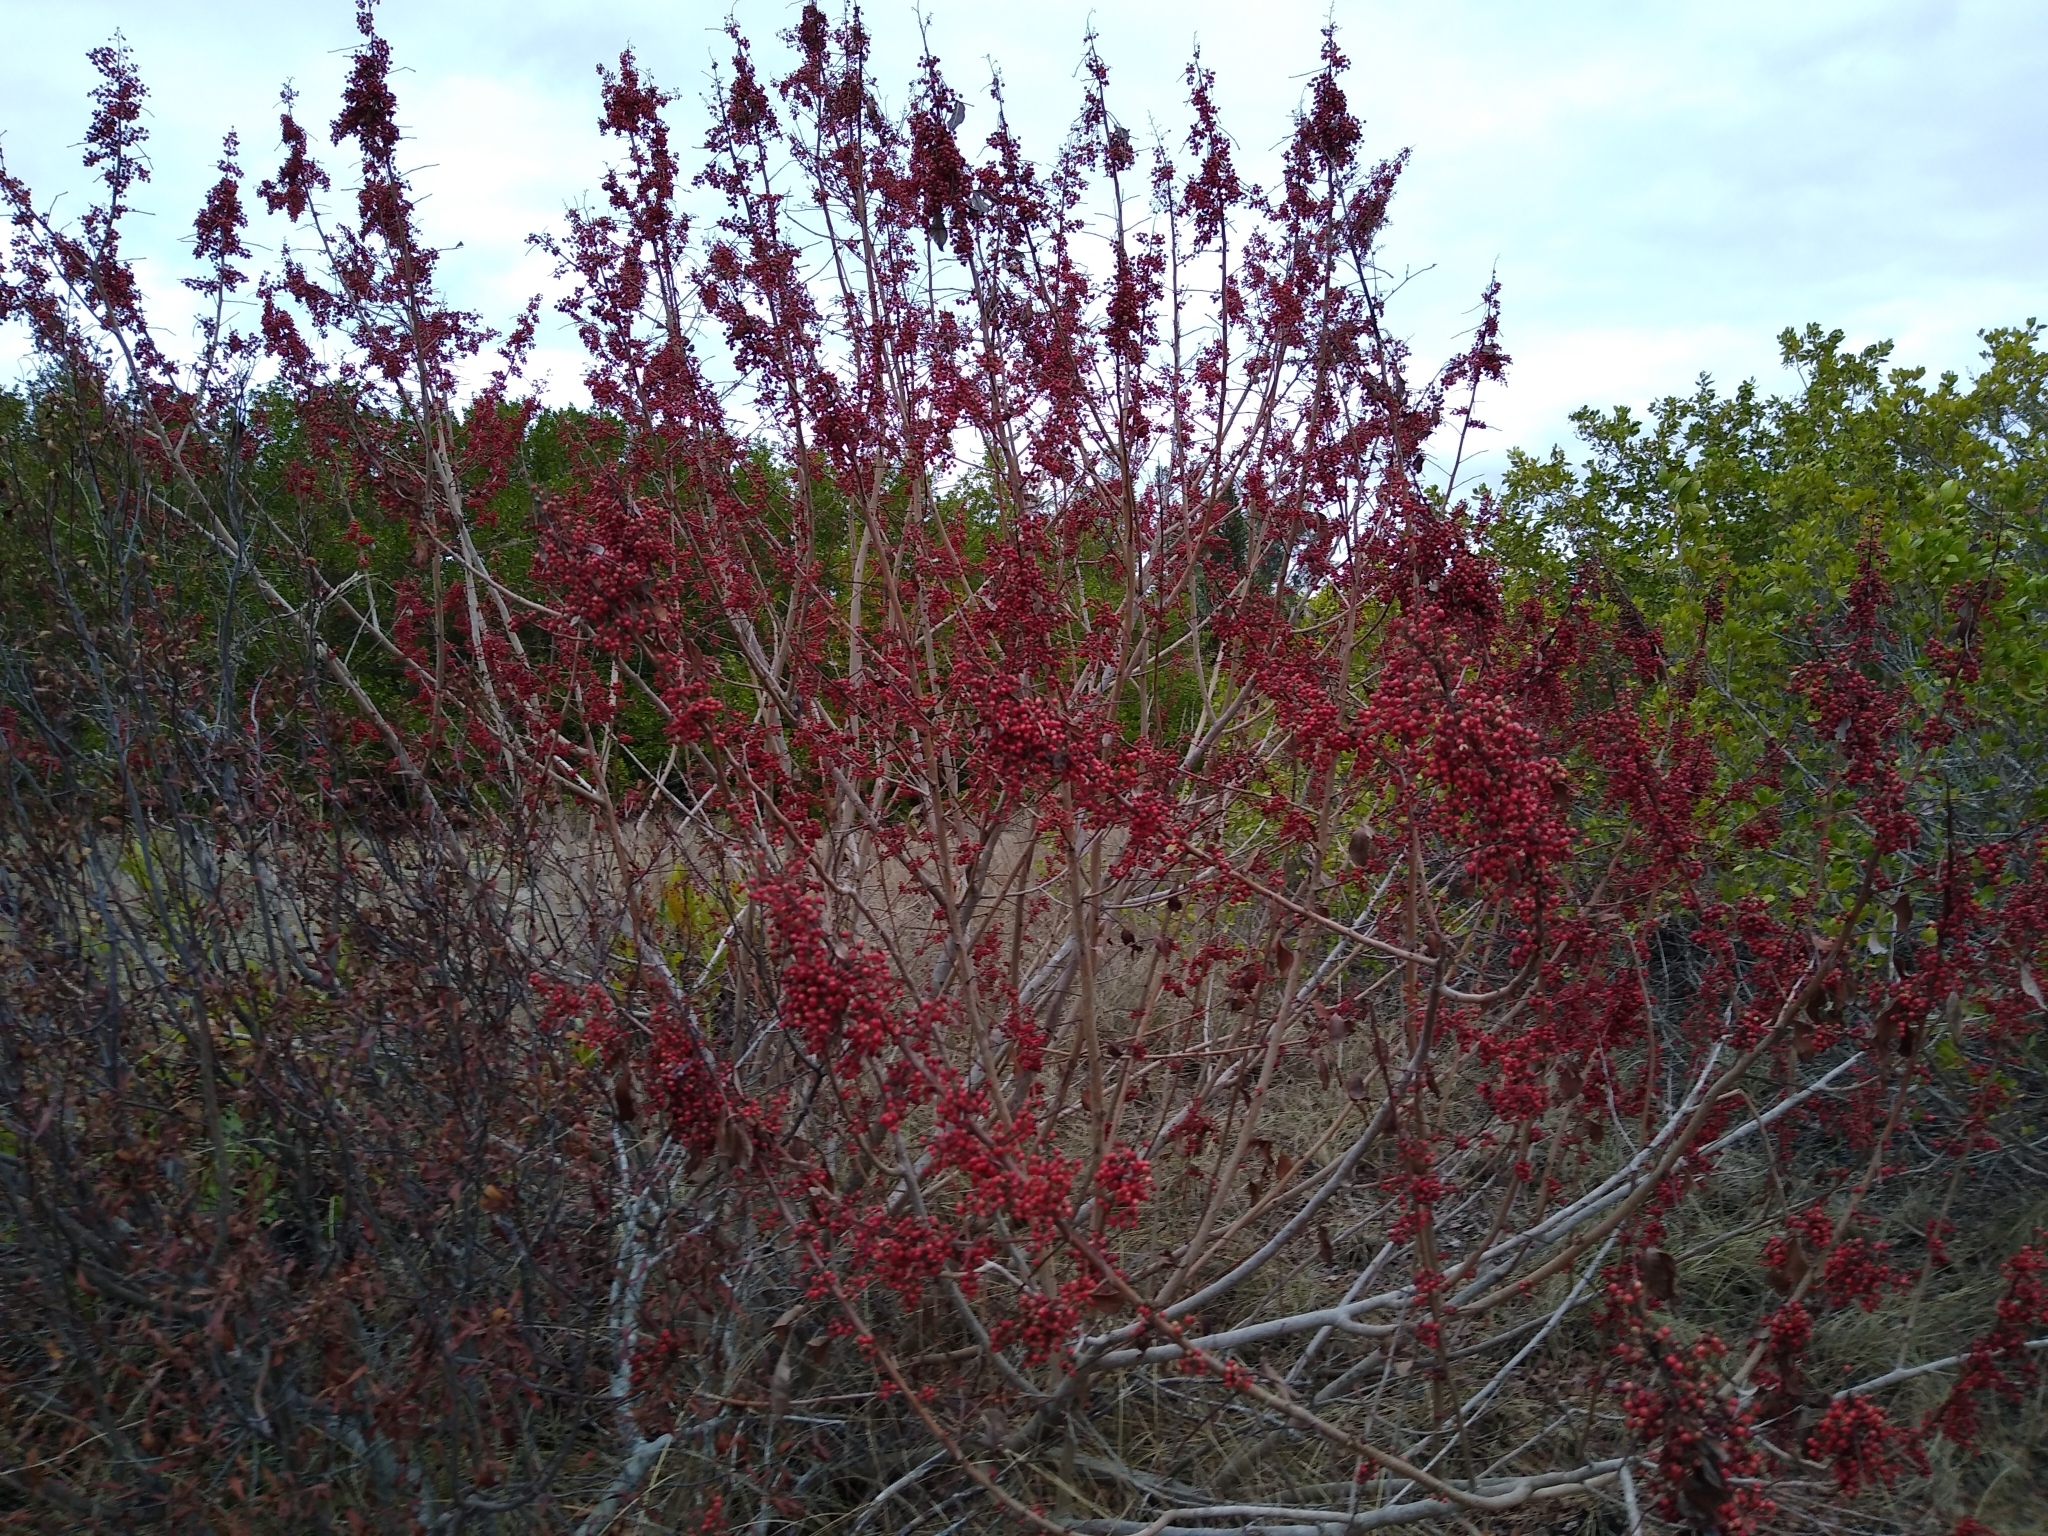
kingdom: Plantae
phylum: Tracheophyta
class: Magnoliopsida
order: Sapindales
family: Anacardiaceae
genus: Schinus
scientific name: Schinus terebinthifolia
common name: Brazilian peppertree
